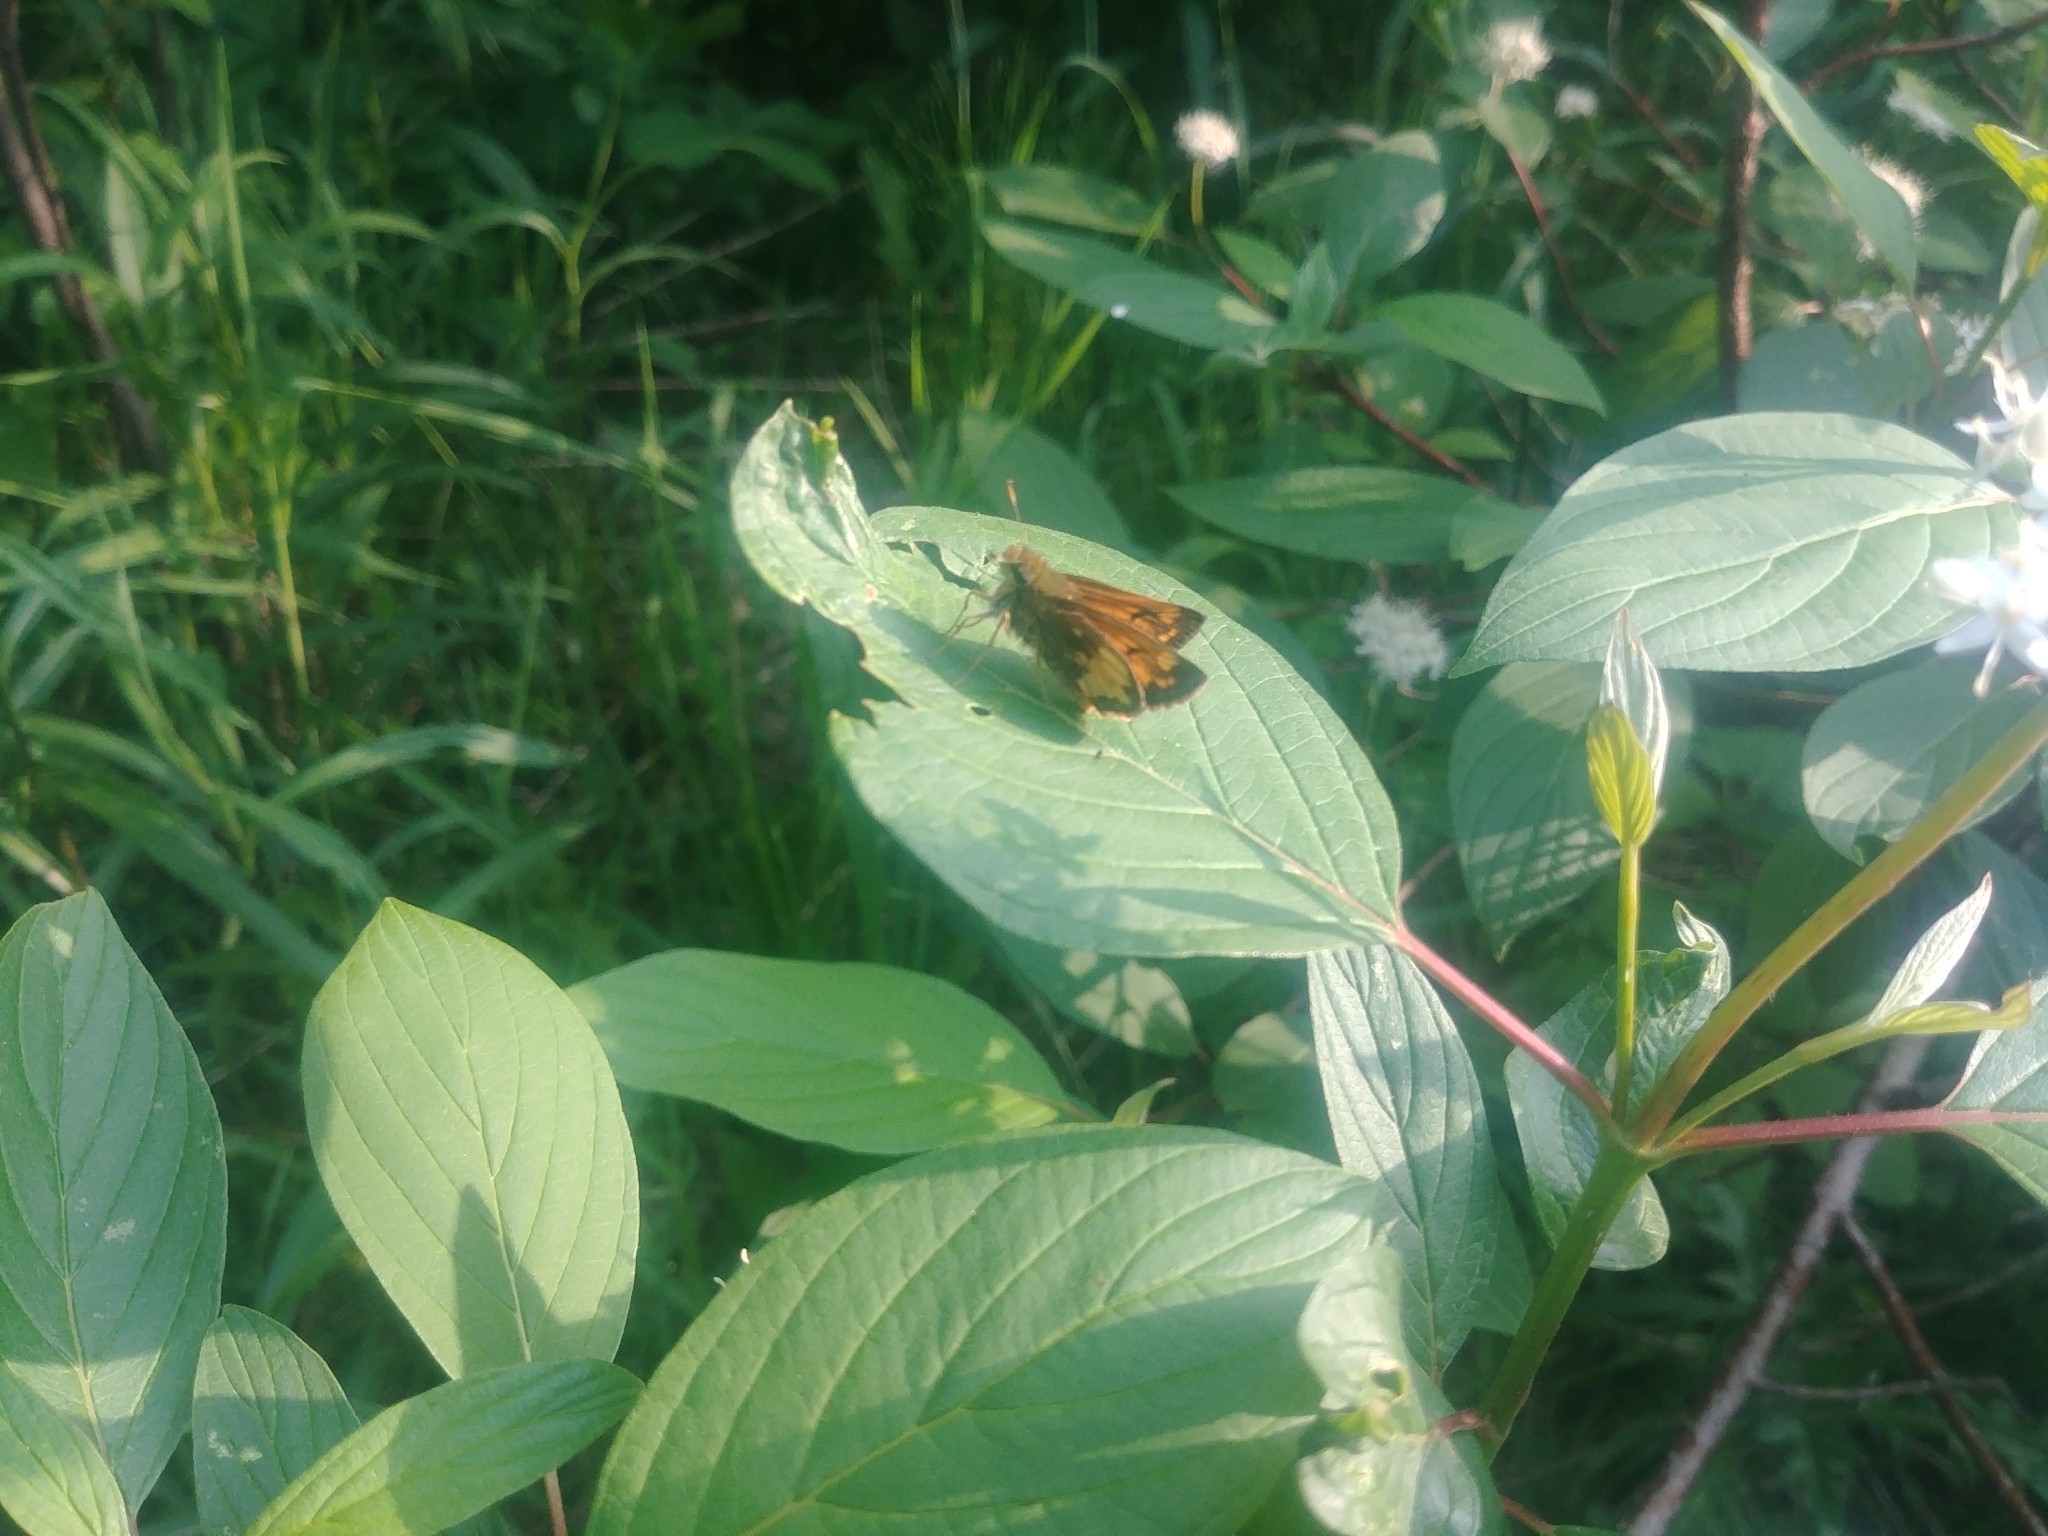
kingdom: Animalia
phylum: Arthropoda
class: Insecta
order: Lepidoptera
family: Hesperiidae
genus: Lon
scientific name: Lon hobomok
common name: Hobomok skipper
